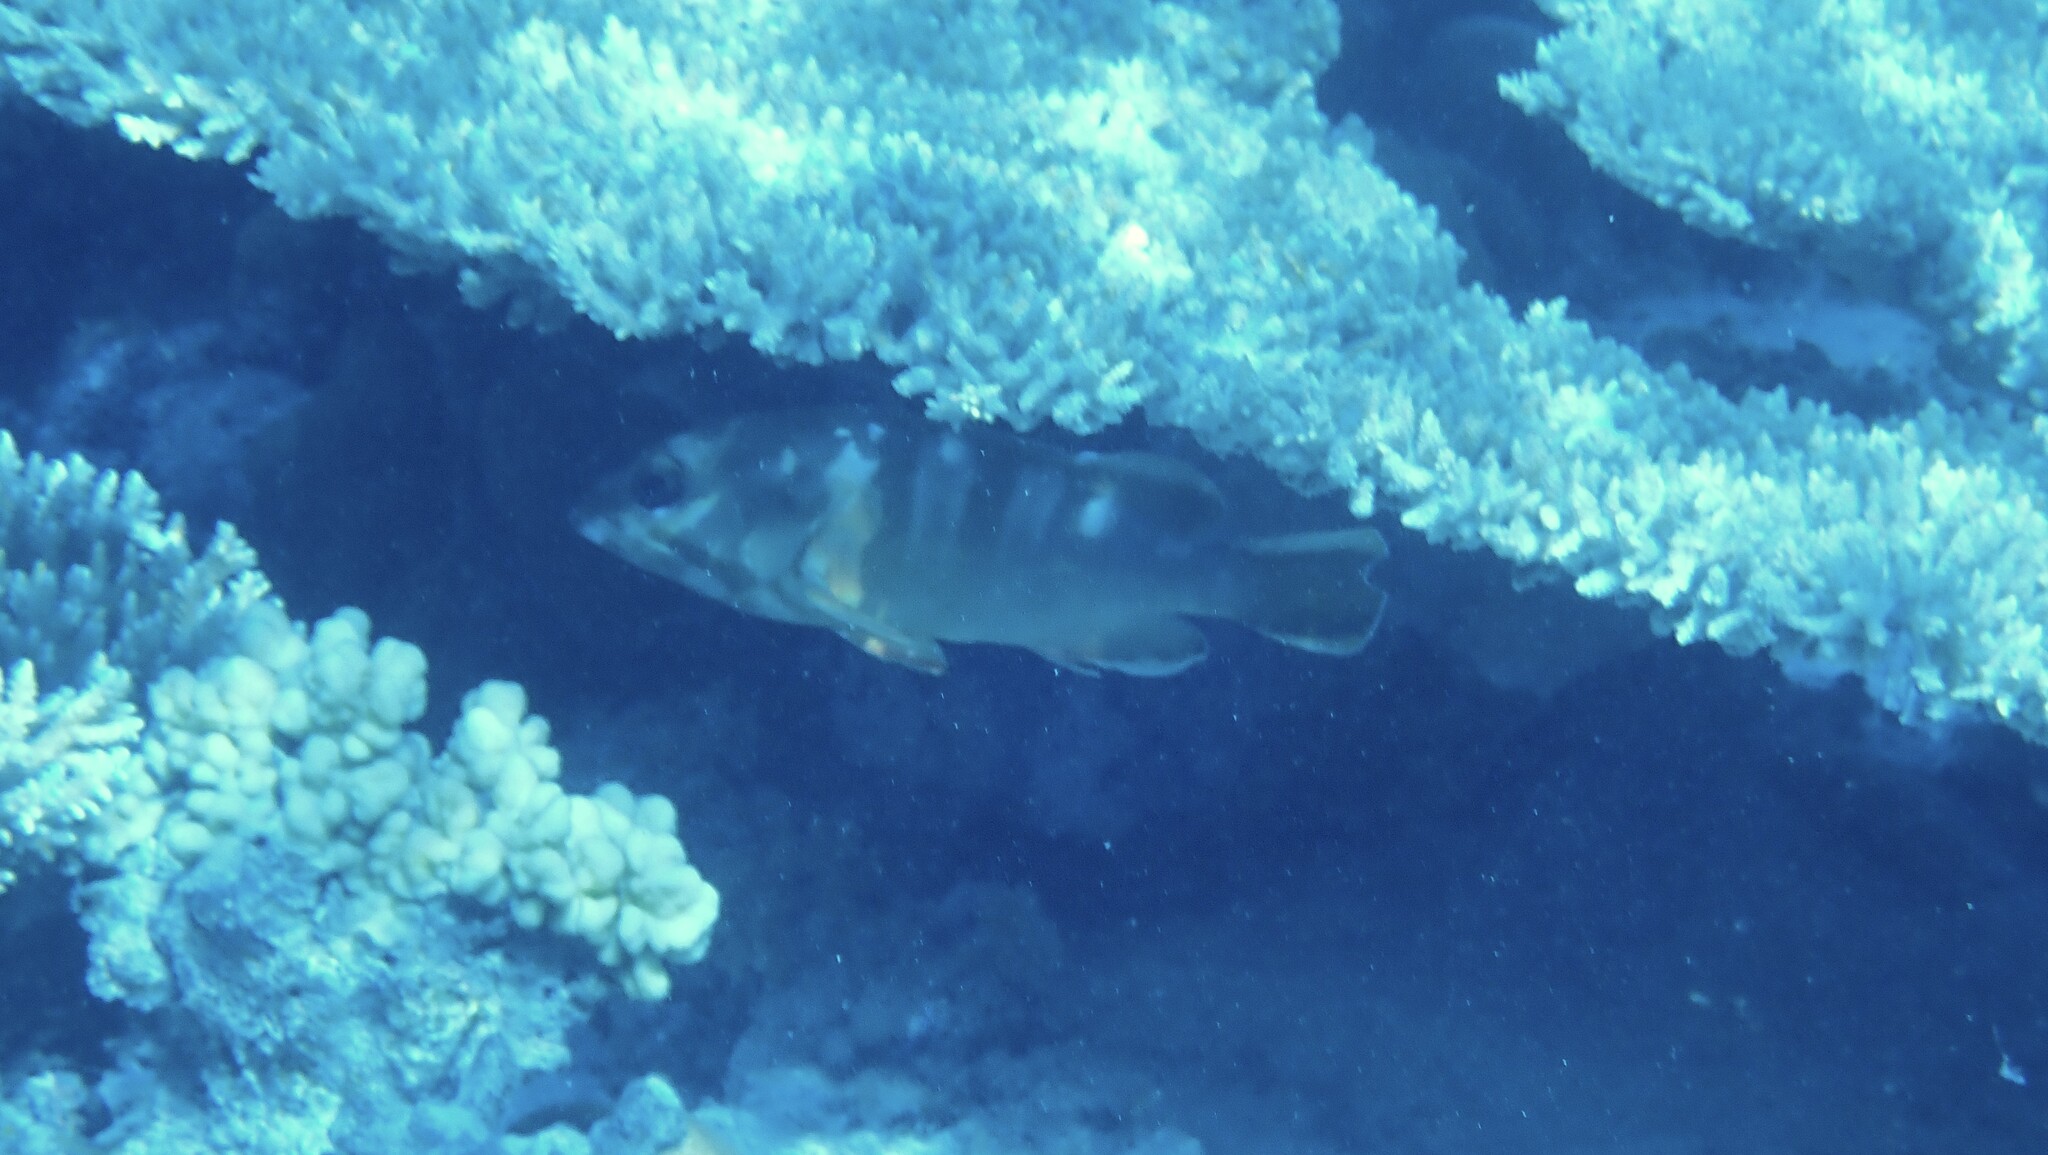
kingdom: Animalia
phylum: Chordata
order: Perciformes
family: Serranidae
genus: Epinephelus
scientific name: Epinephelus fasciatus
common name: Blacktip grouper
